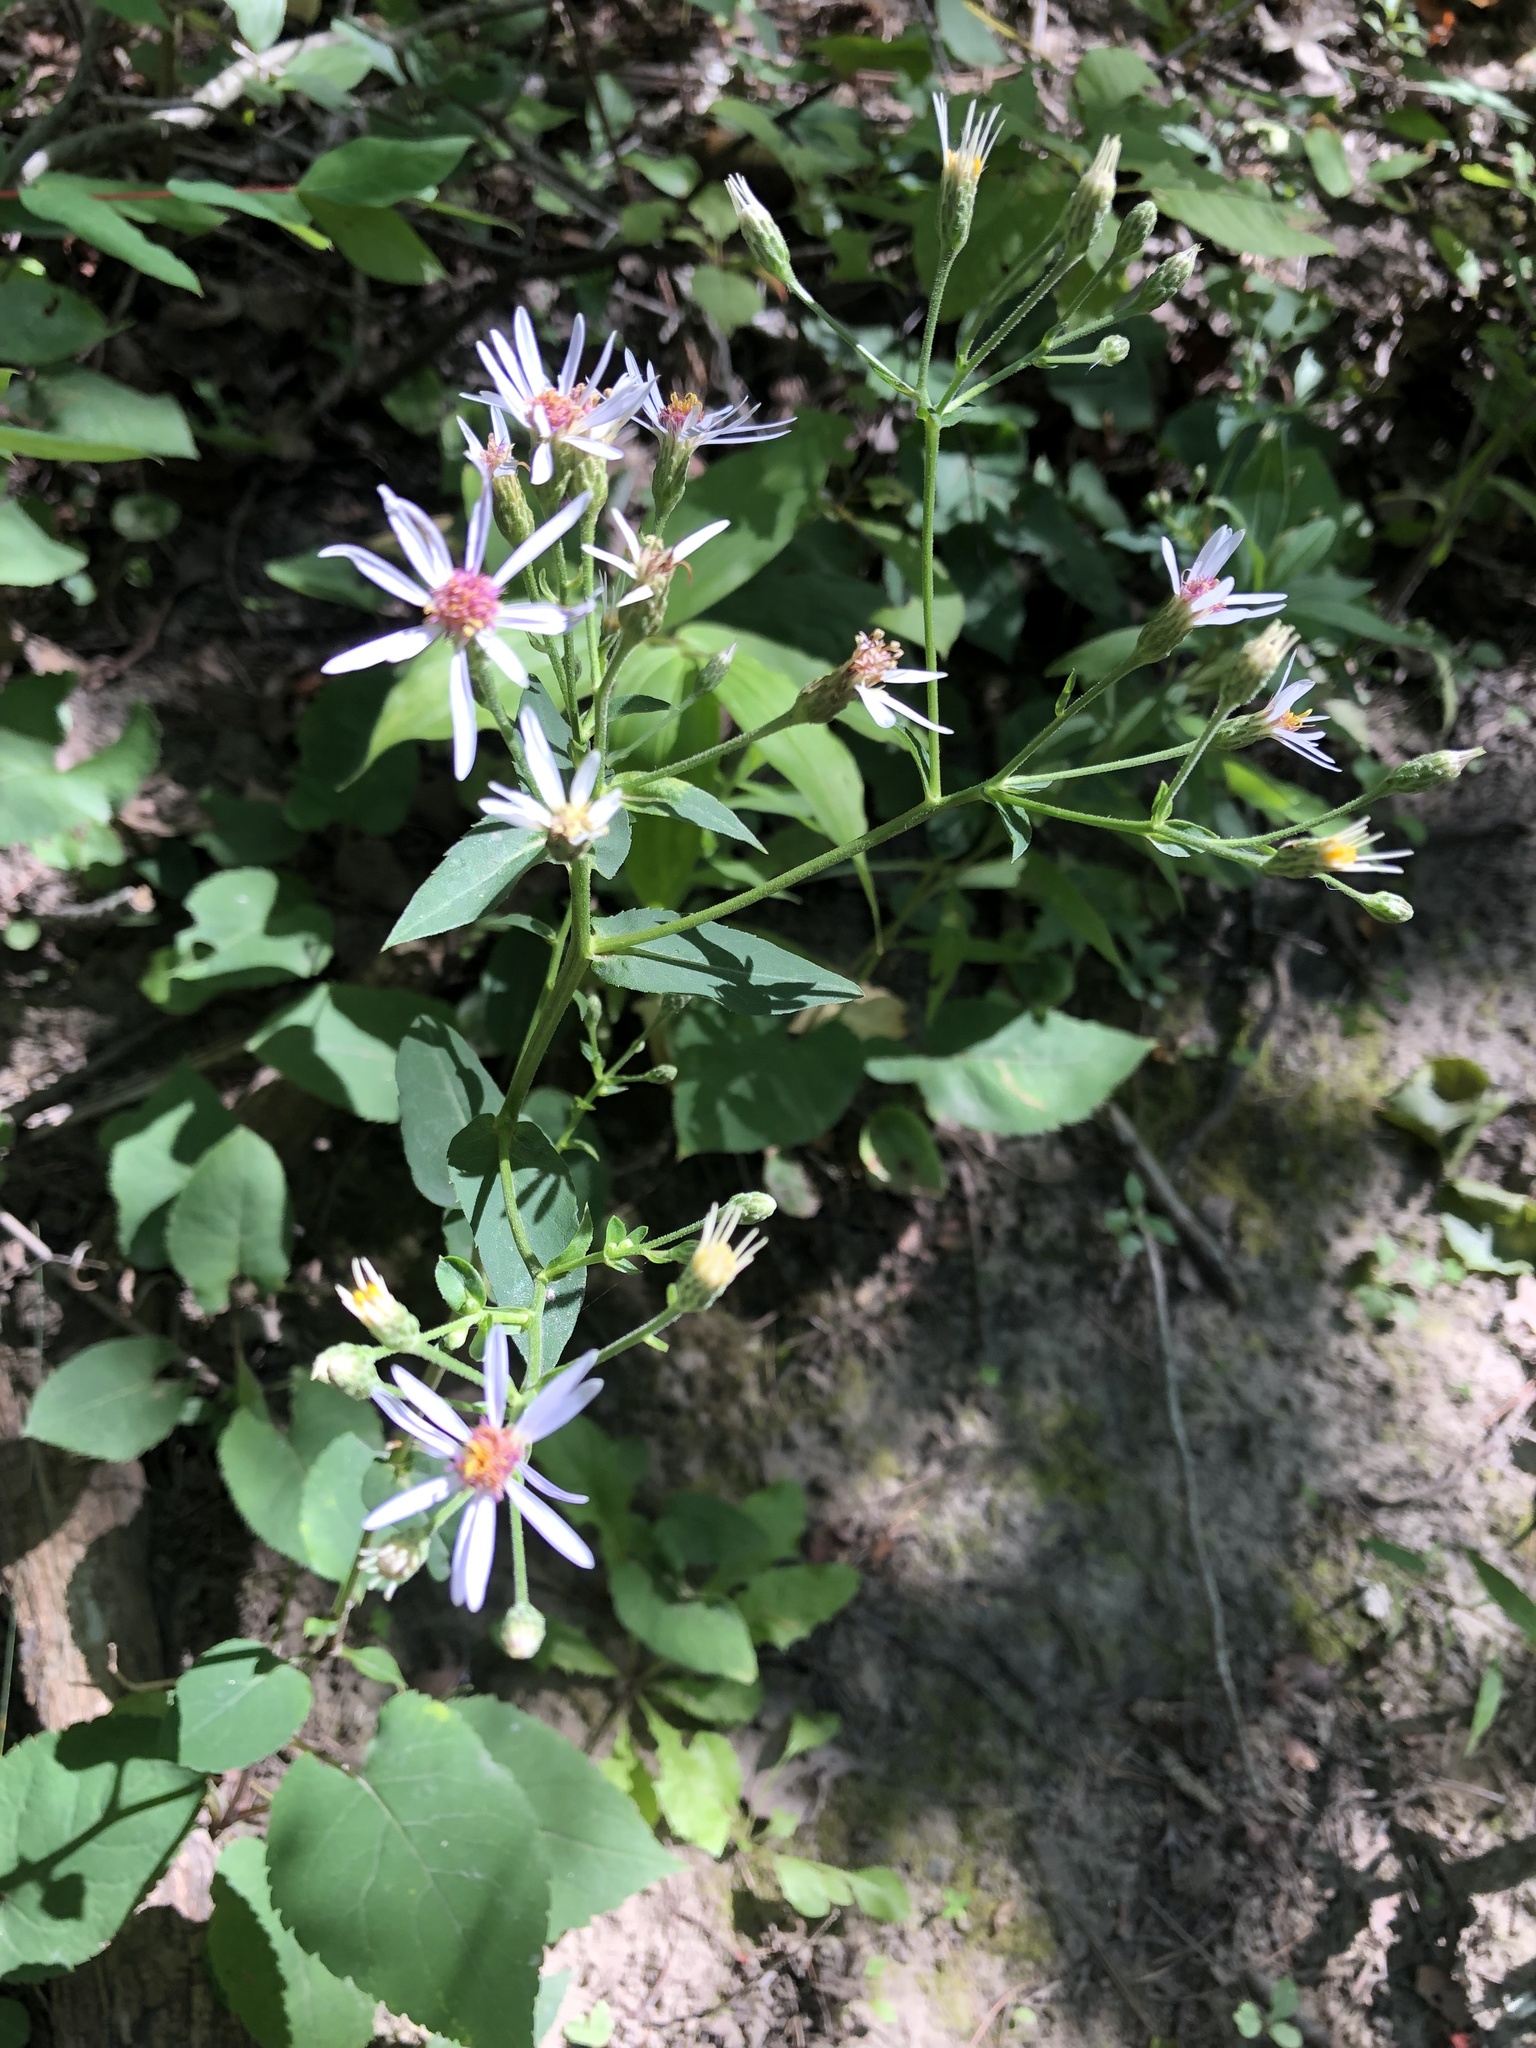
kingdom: Plantae
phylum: Tracheophyta
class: Magnoliopsida
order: Asterales
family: Asteraceae
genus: Eurybia
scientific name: Eurybia macrophylla
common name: Big-leaved aster
